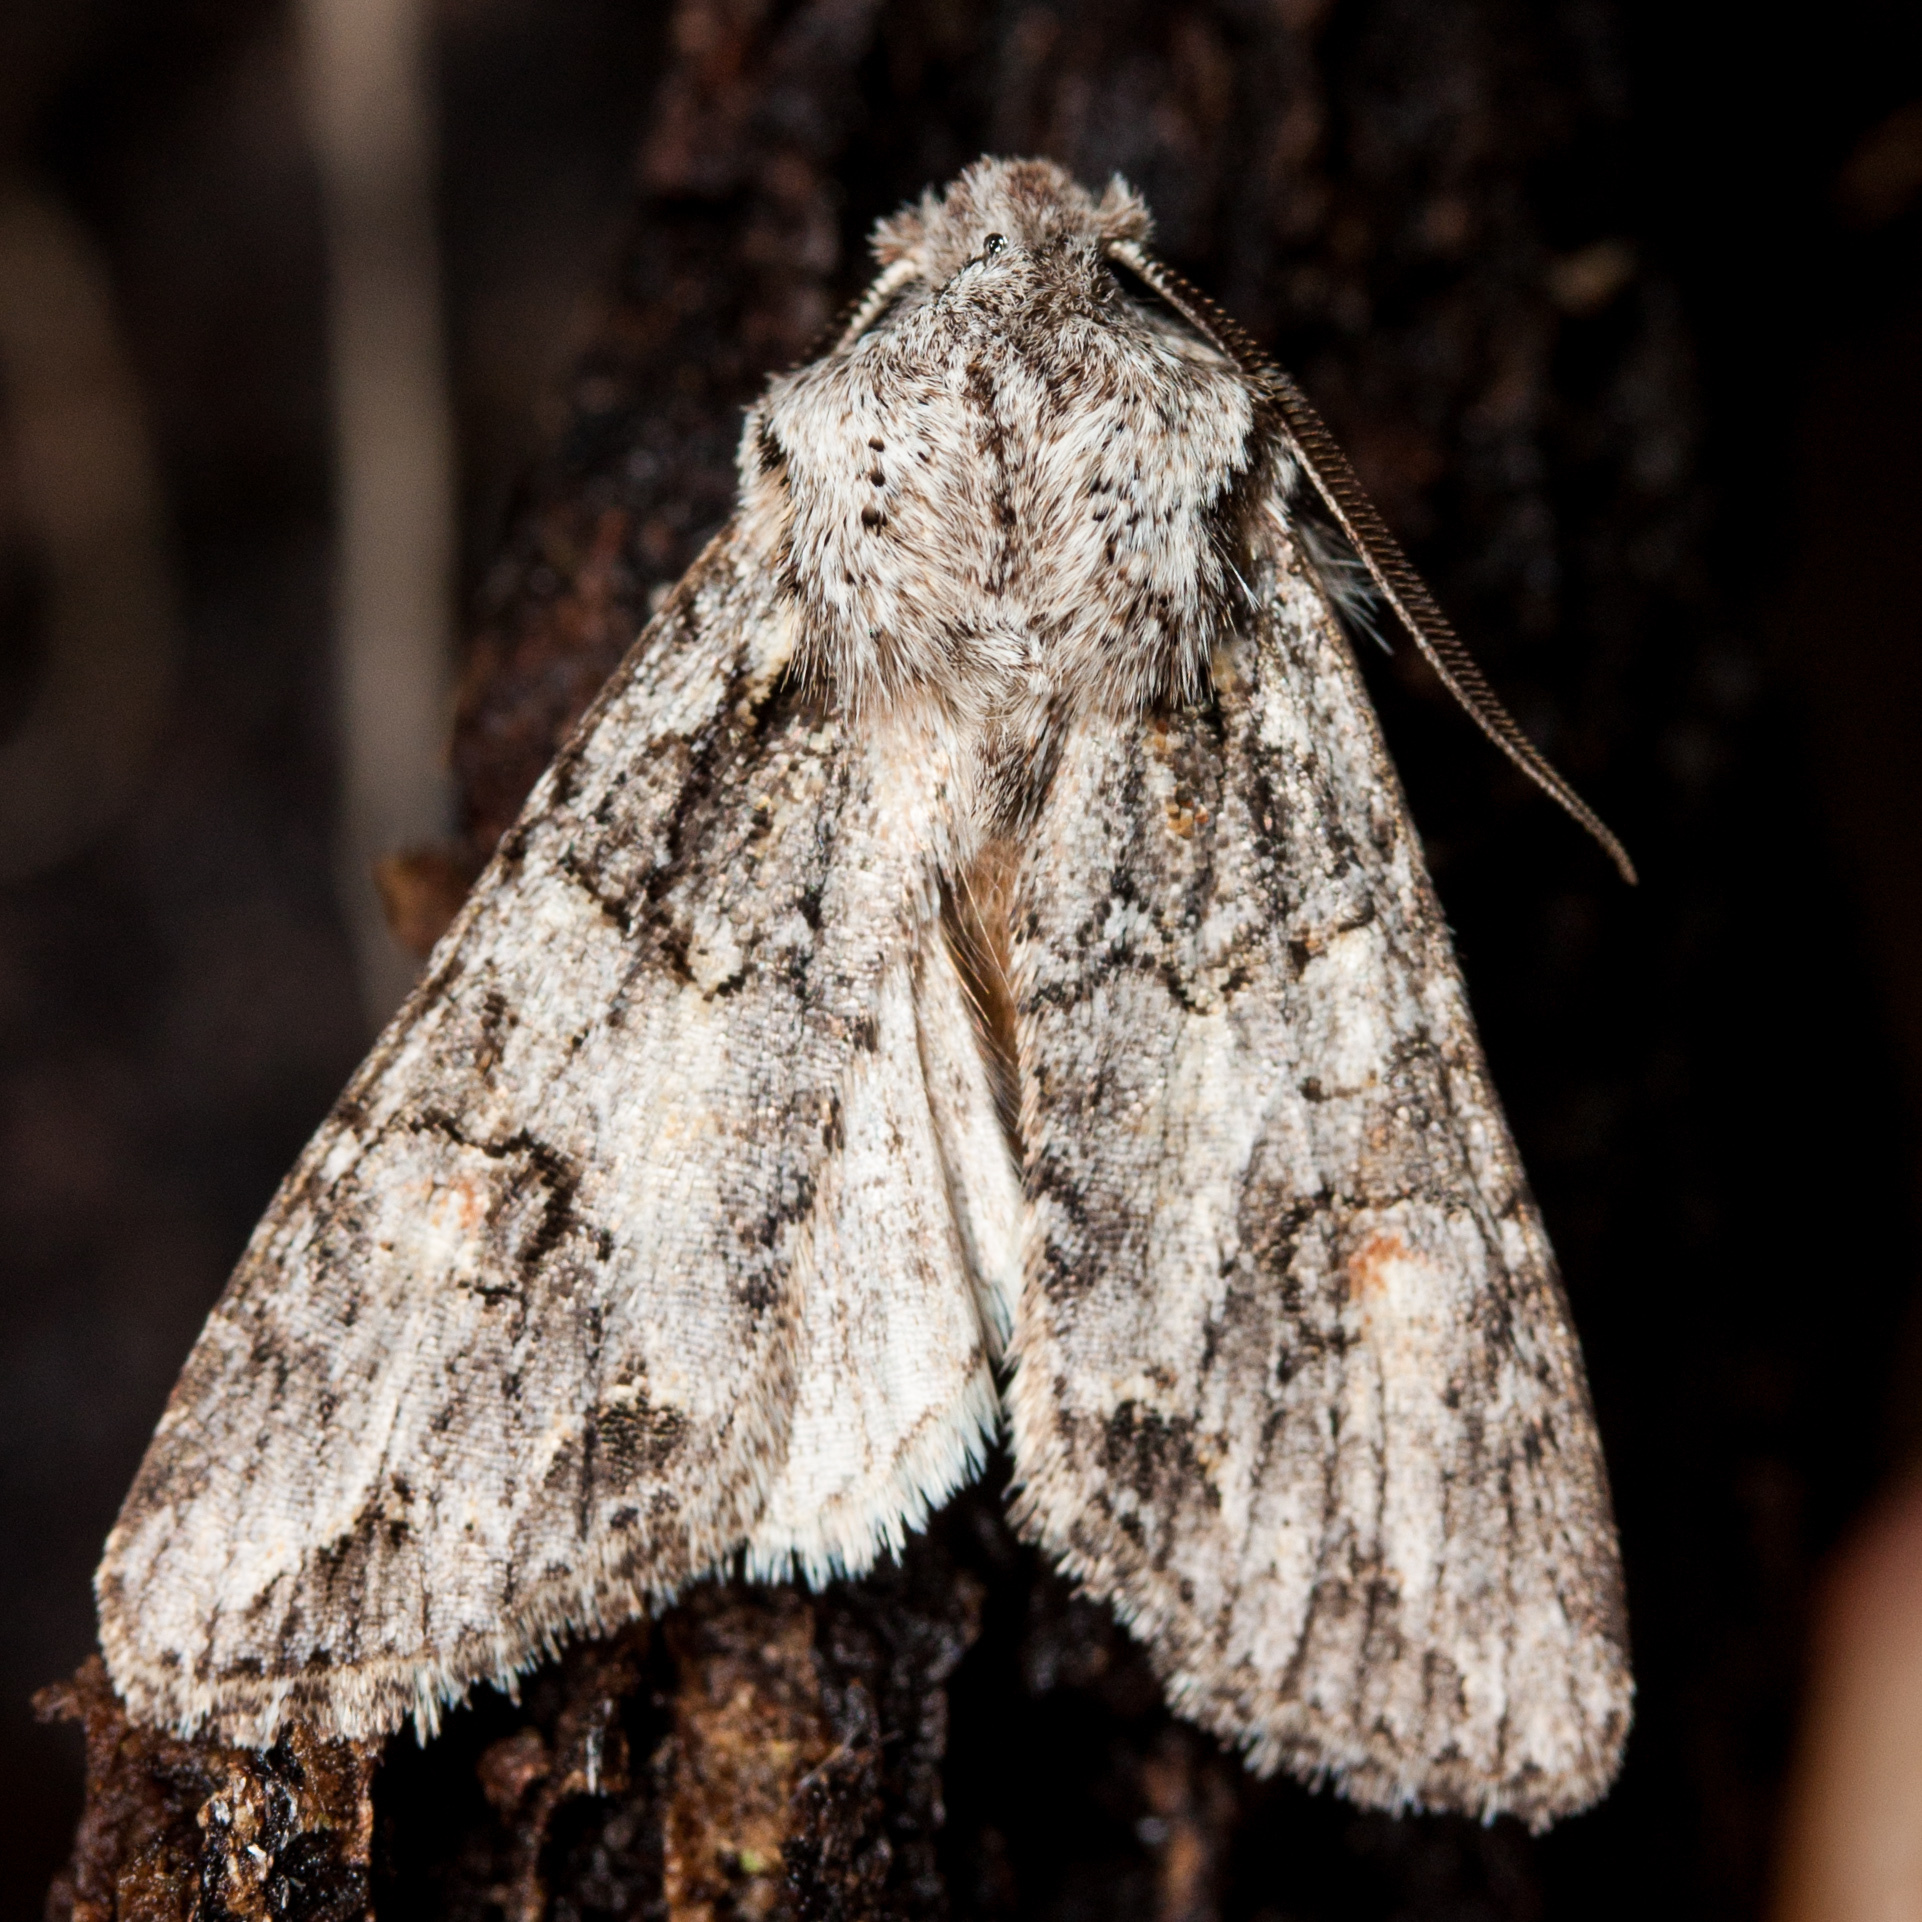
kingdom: Animalia
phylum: Arthropoda
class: Insecta
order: Lepidoptera
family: Noctuidae
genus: Egira
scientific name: Egira hiemalis
